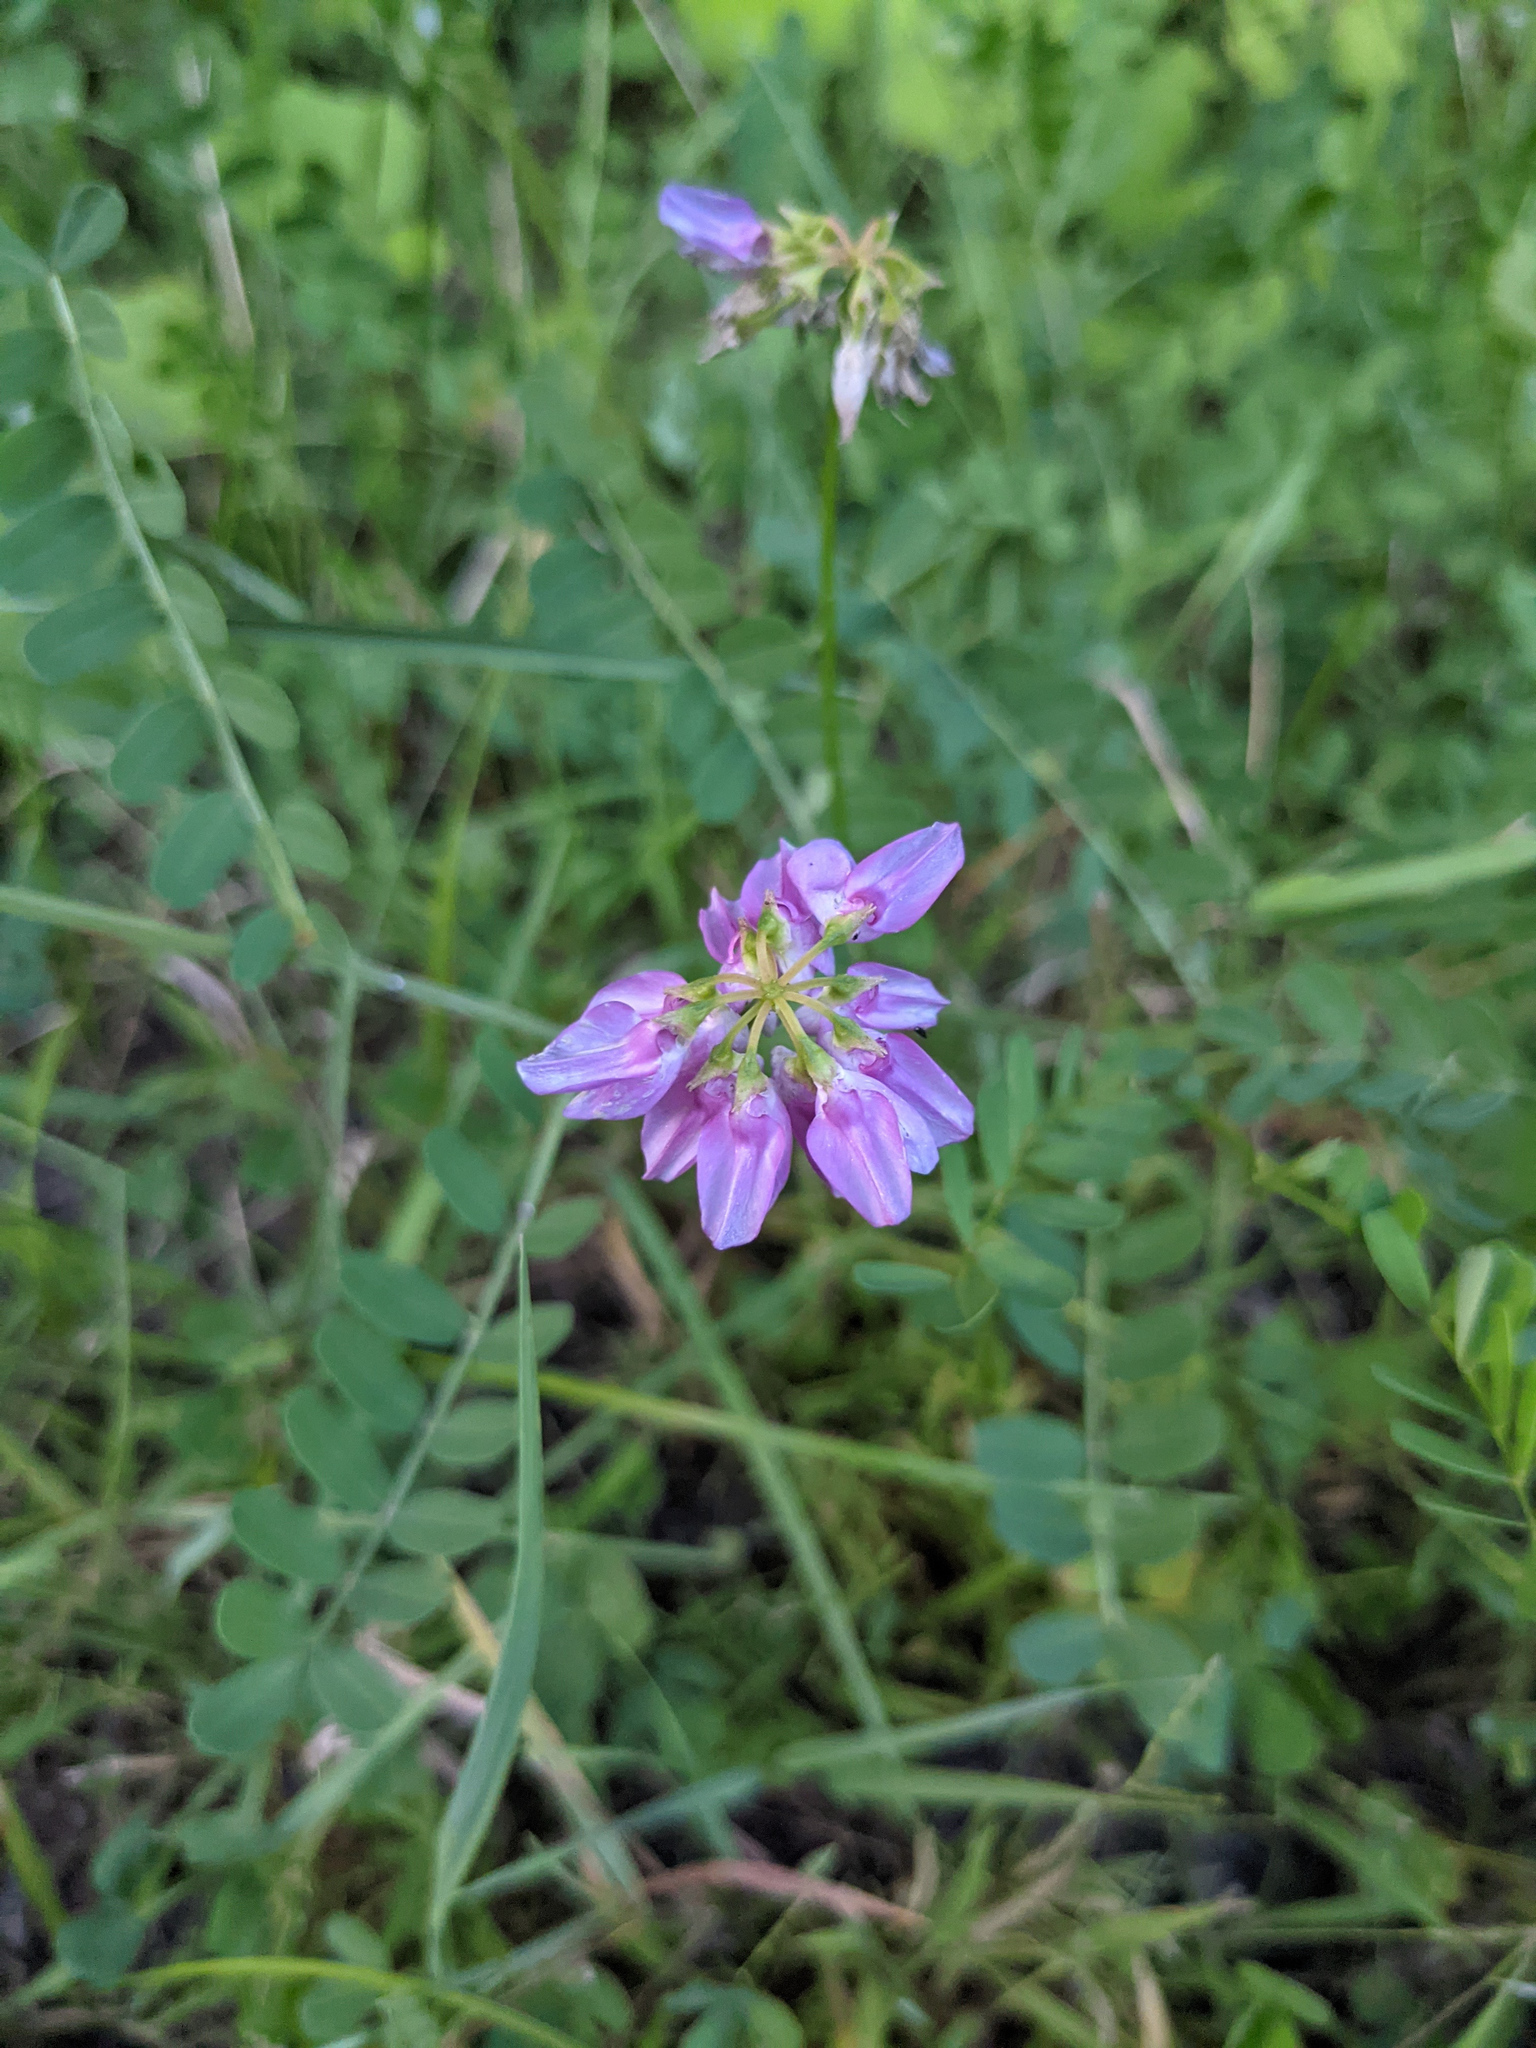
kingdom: Plantae
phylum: Tracheophyta
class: Magnoliopsida
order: Fabales
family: Fabaceae
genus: Coronilla
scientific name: Coronilla varia
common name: Crownvetch
